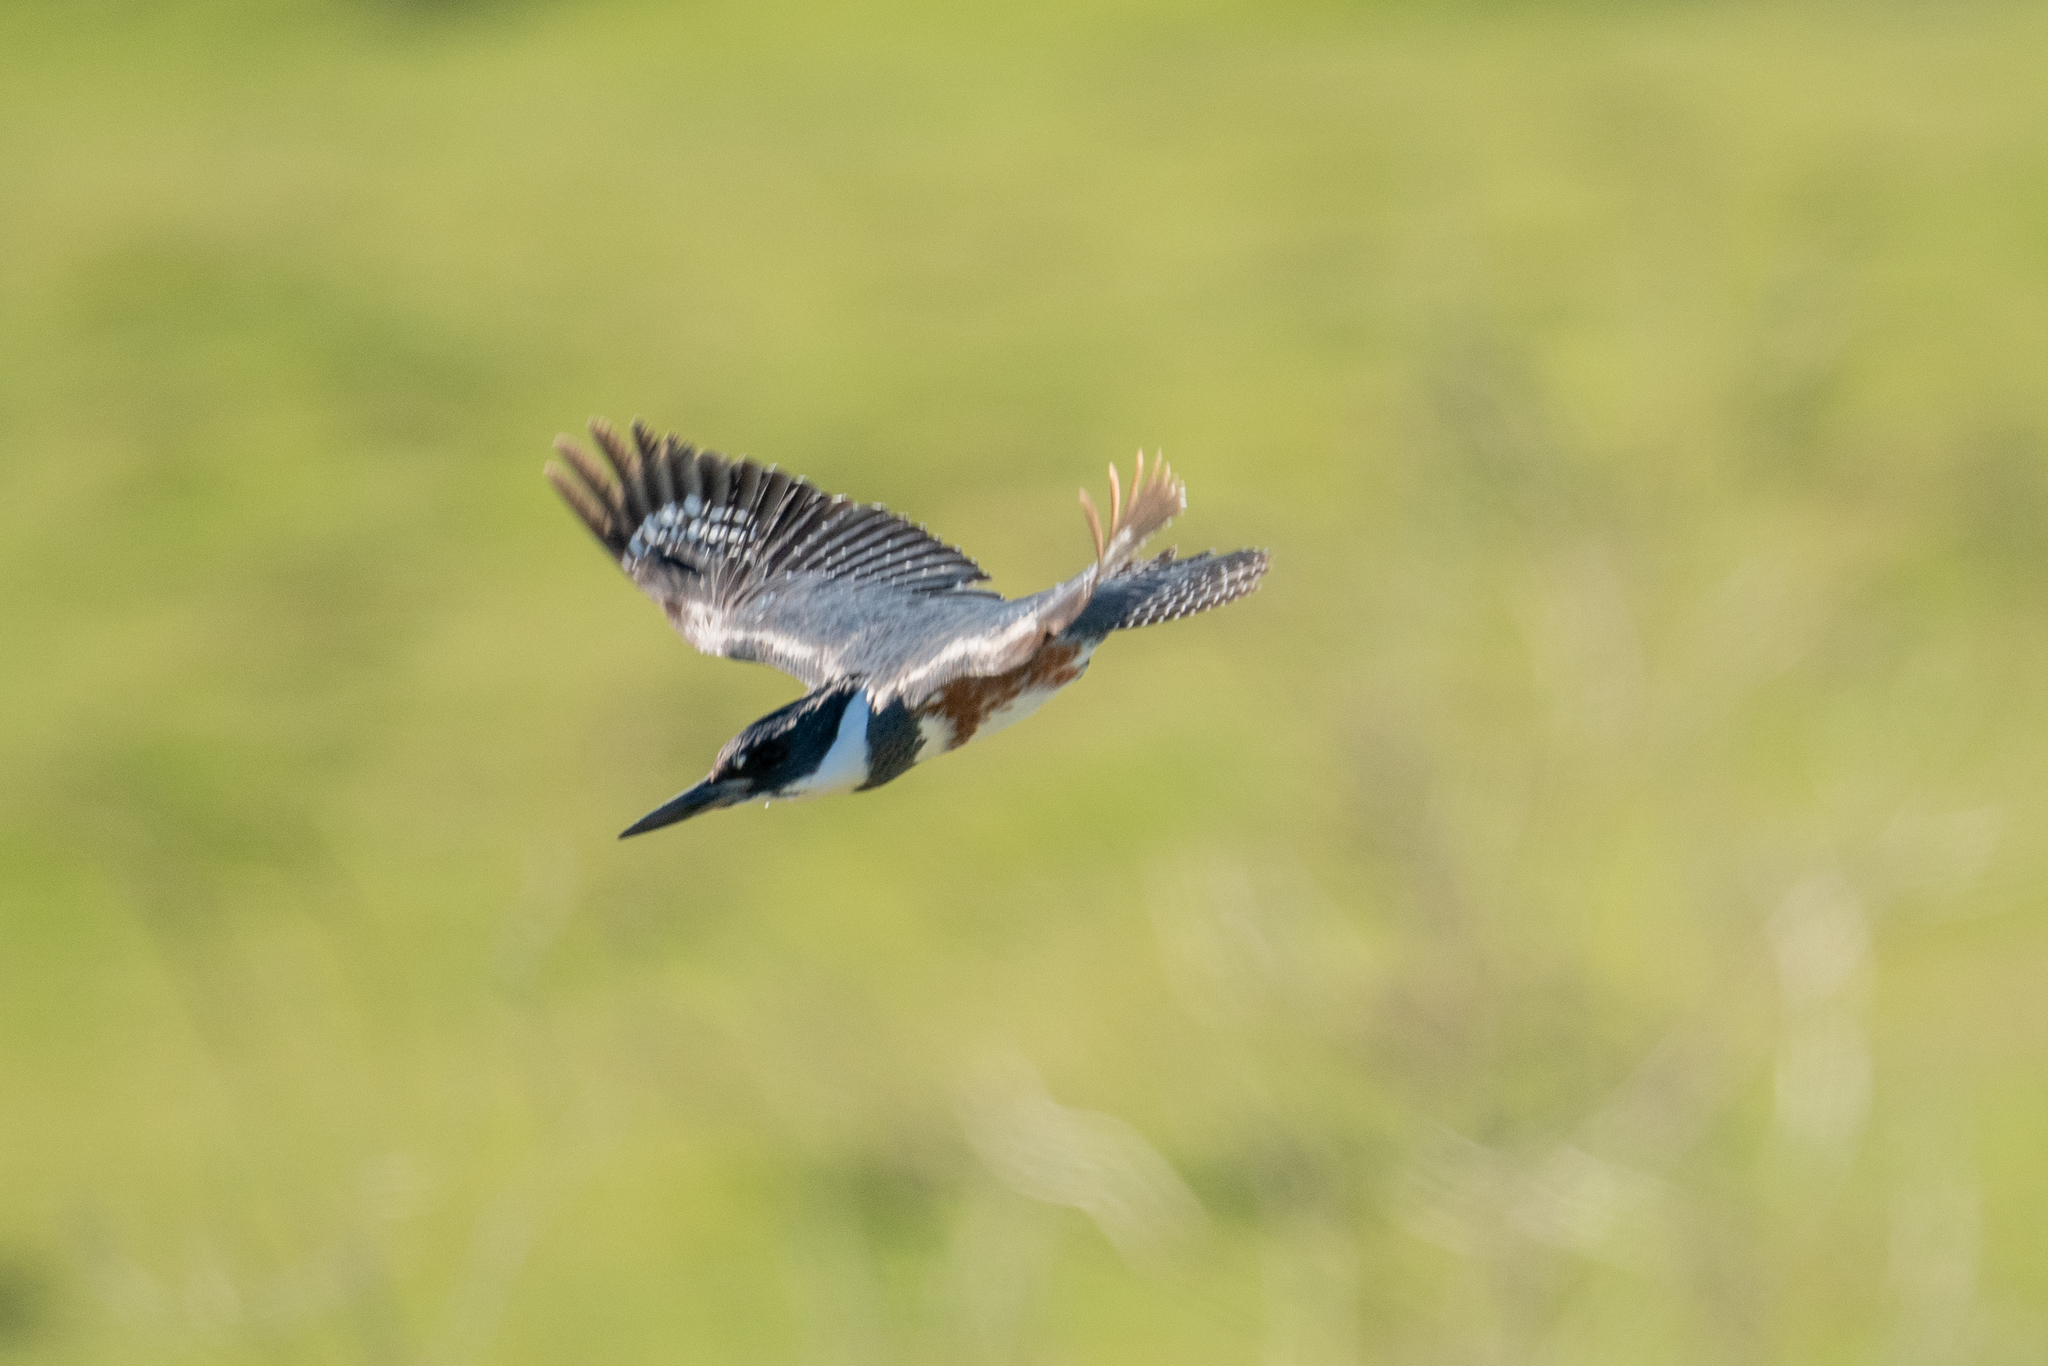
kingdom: Animalia
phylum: Chordata
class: Aves
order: Coraciiformes
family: Alcedinidae
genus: Megaceryle
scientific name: Megaceryle alcyon
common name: Belted kingfisher
